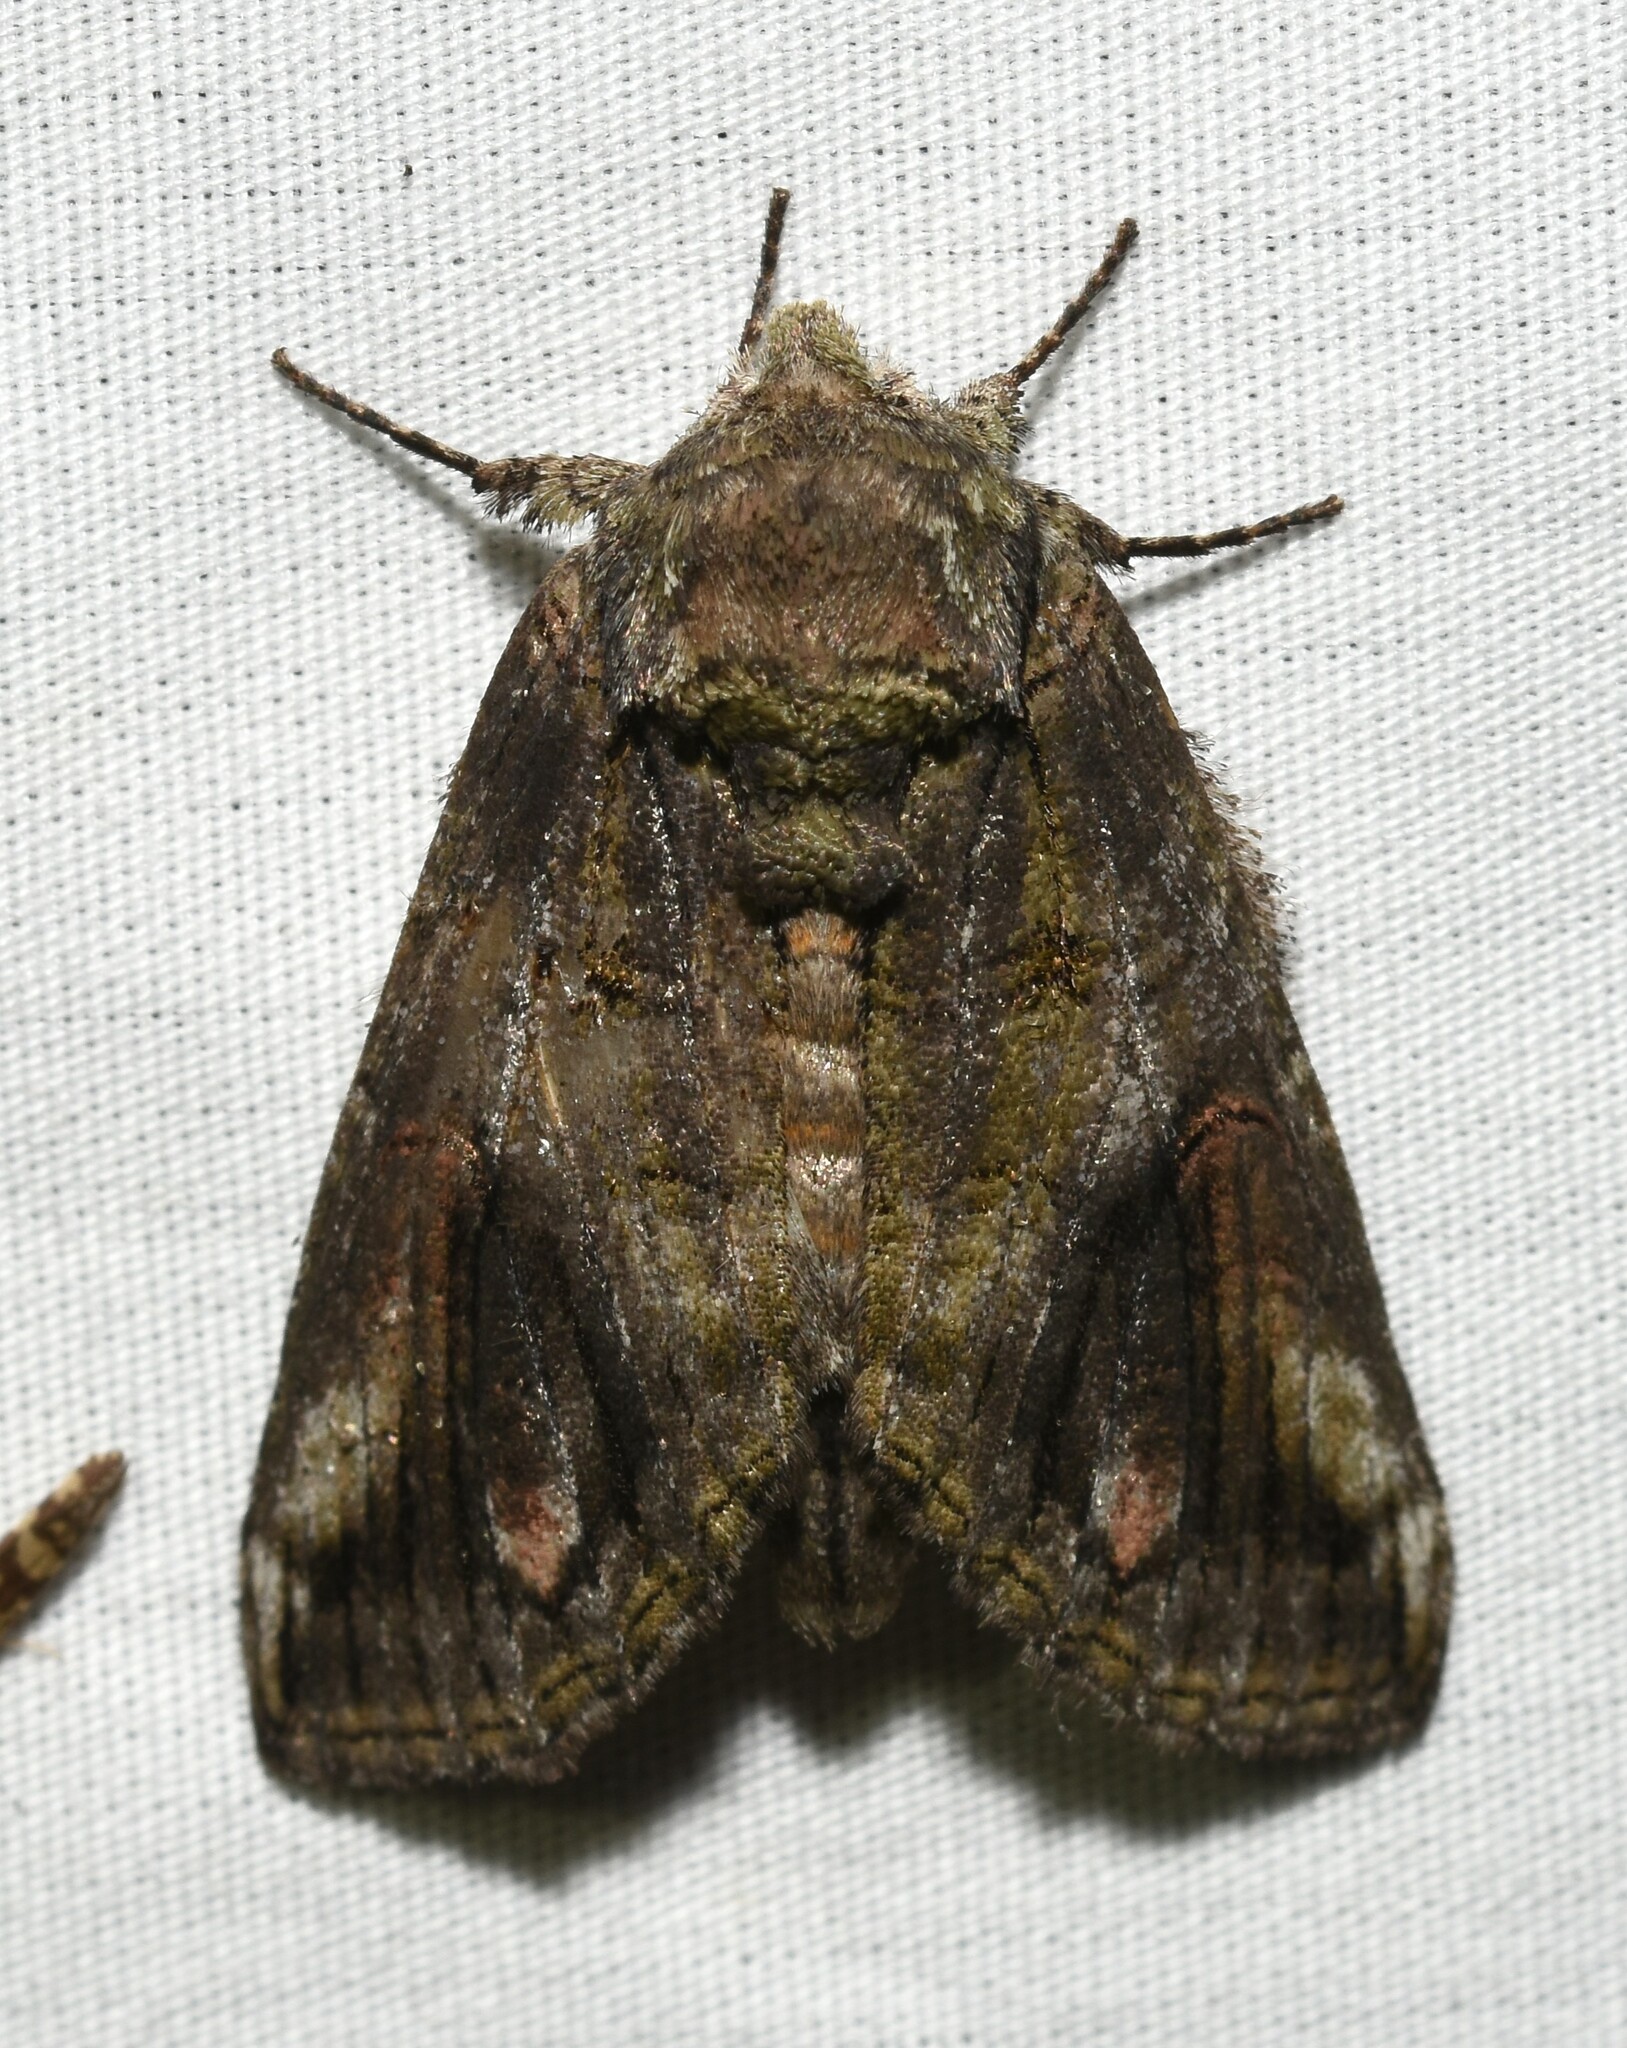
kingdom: Animalia
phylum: Arthropoda
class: Insecta
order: Lepidoptera
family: Notodontidae
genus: Heterocampa
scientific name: Heterocampa obliqua
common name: Oblique heterocampa
